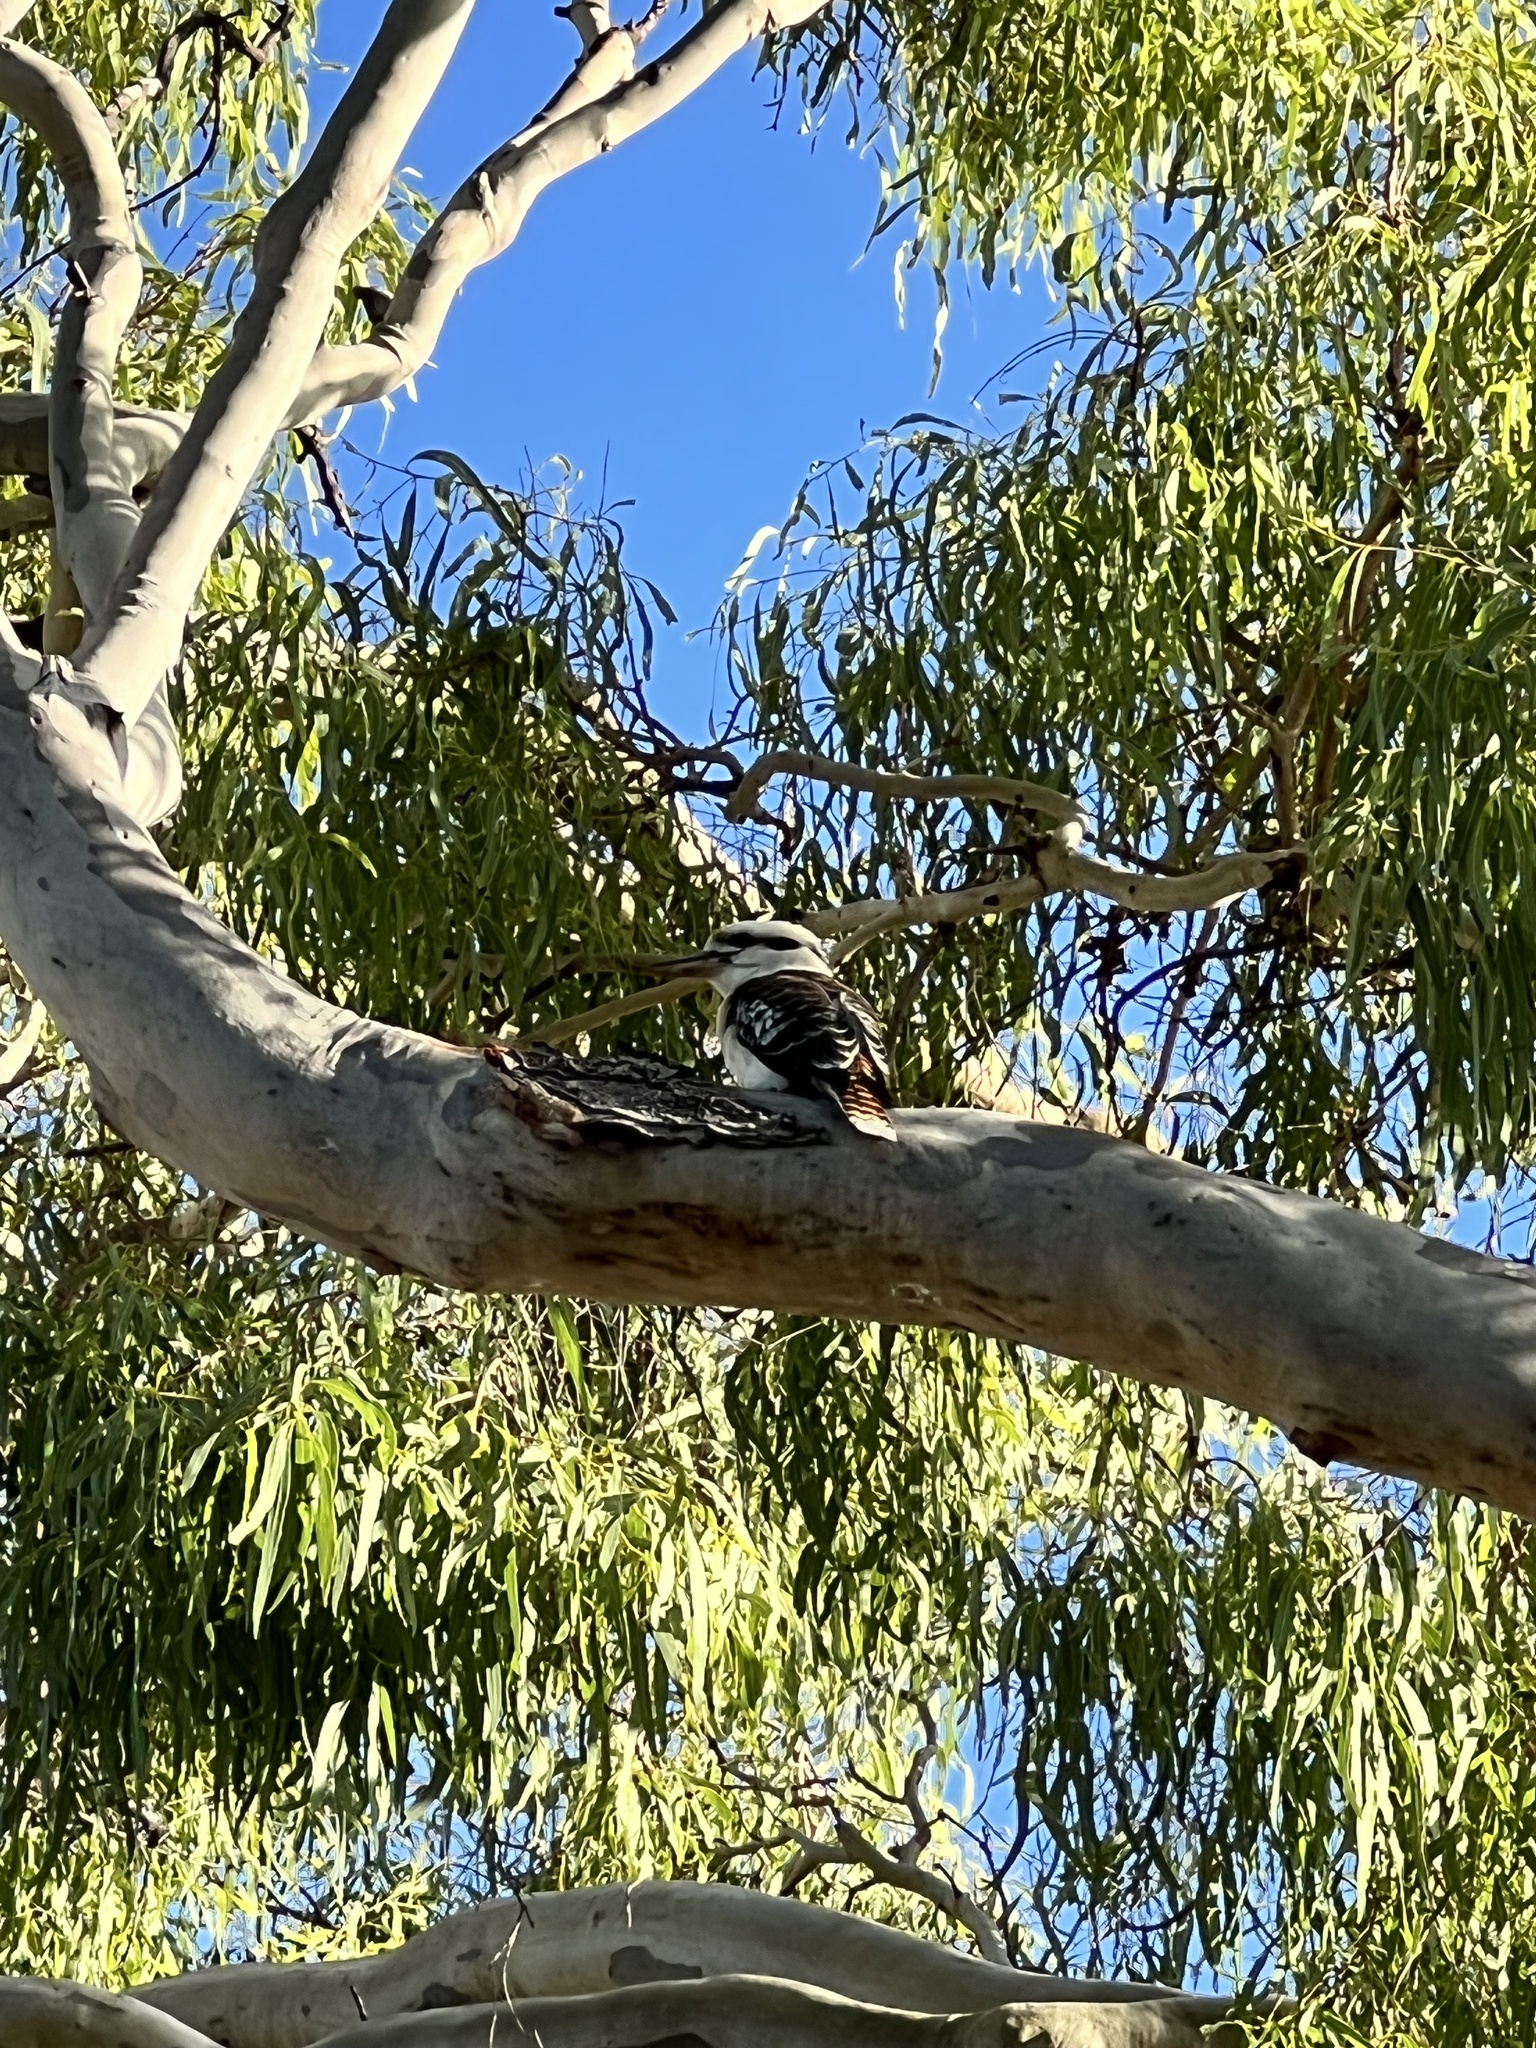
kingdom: Animalia
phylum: Chordata
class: Aves
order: Coraciiformes
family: Alcedinidae
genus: Dacelo
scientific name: Dacelo novaeguineae
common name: Laughing kookaburra
